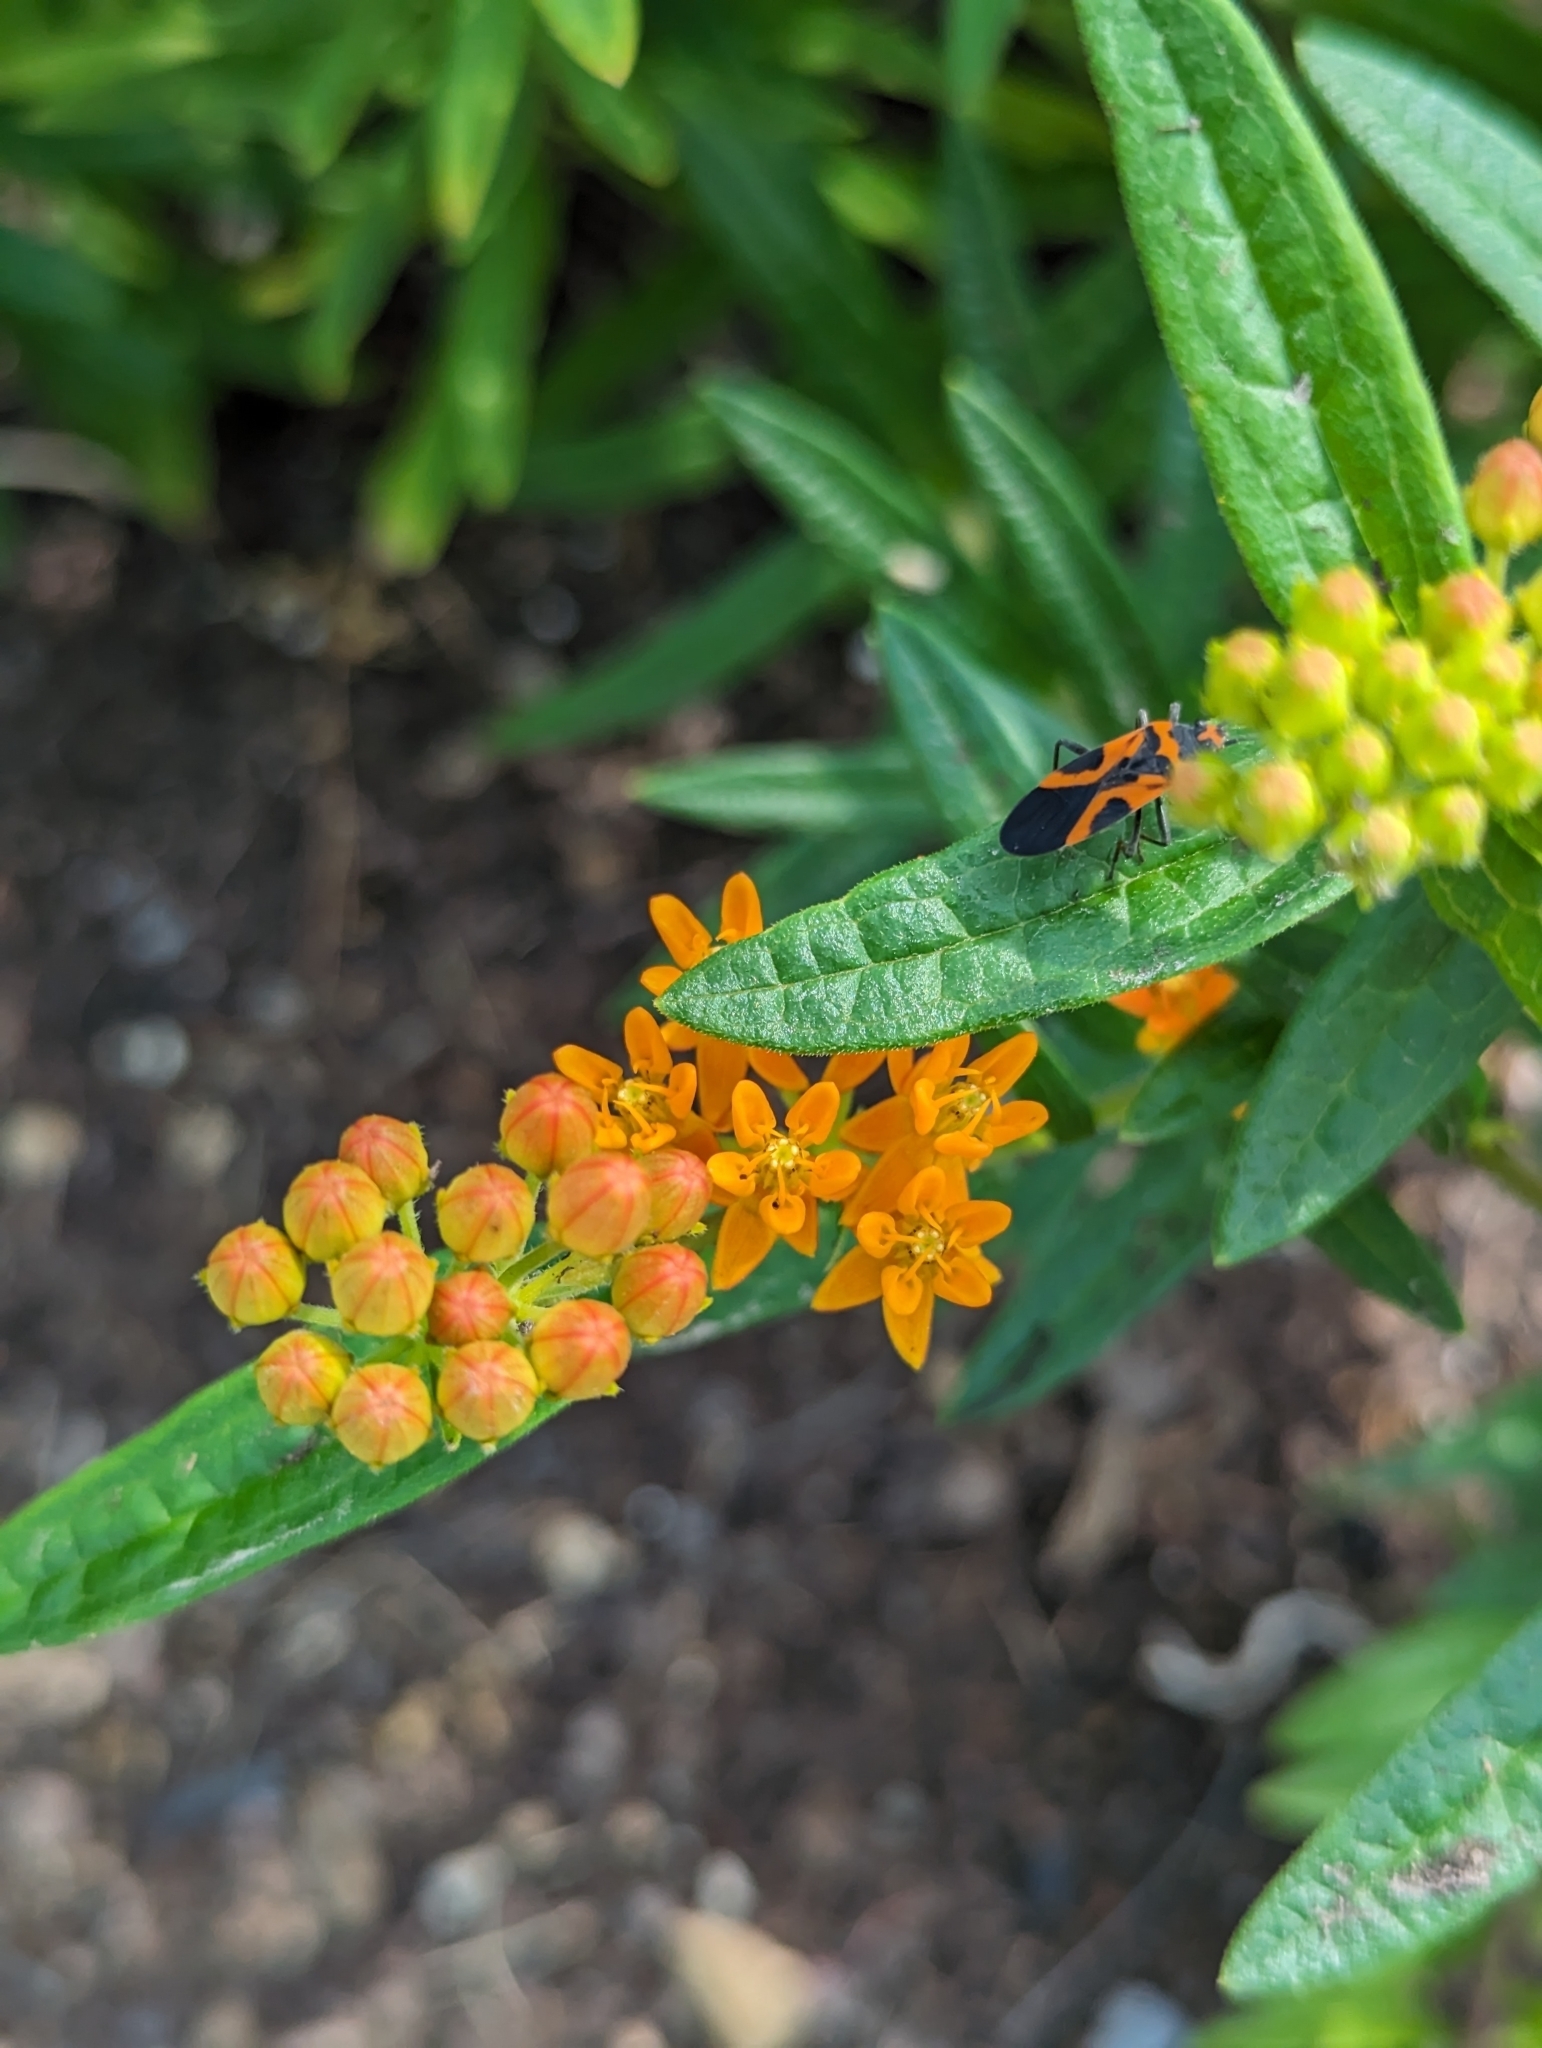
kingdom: Animalia
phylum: Arthropoda
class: Insecta
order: Hemiptera
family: Lygaeidae
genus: Lygaeus
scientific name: Lygaeus turcicus
